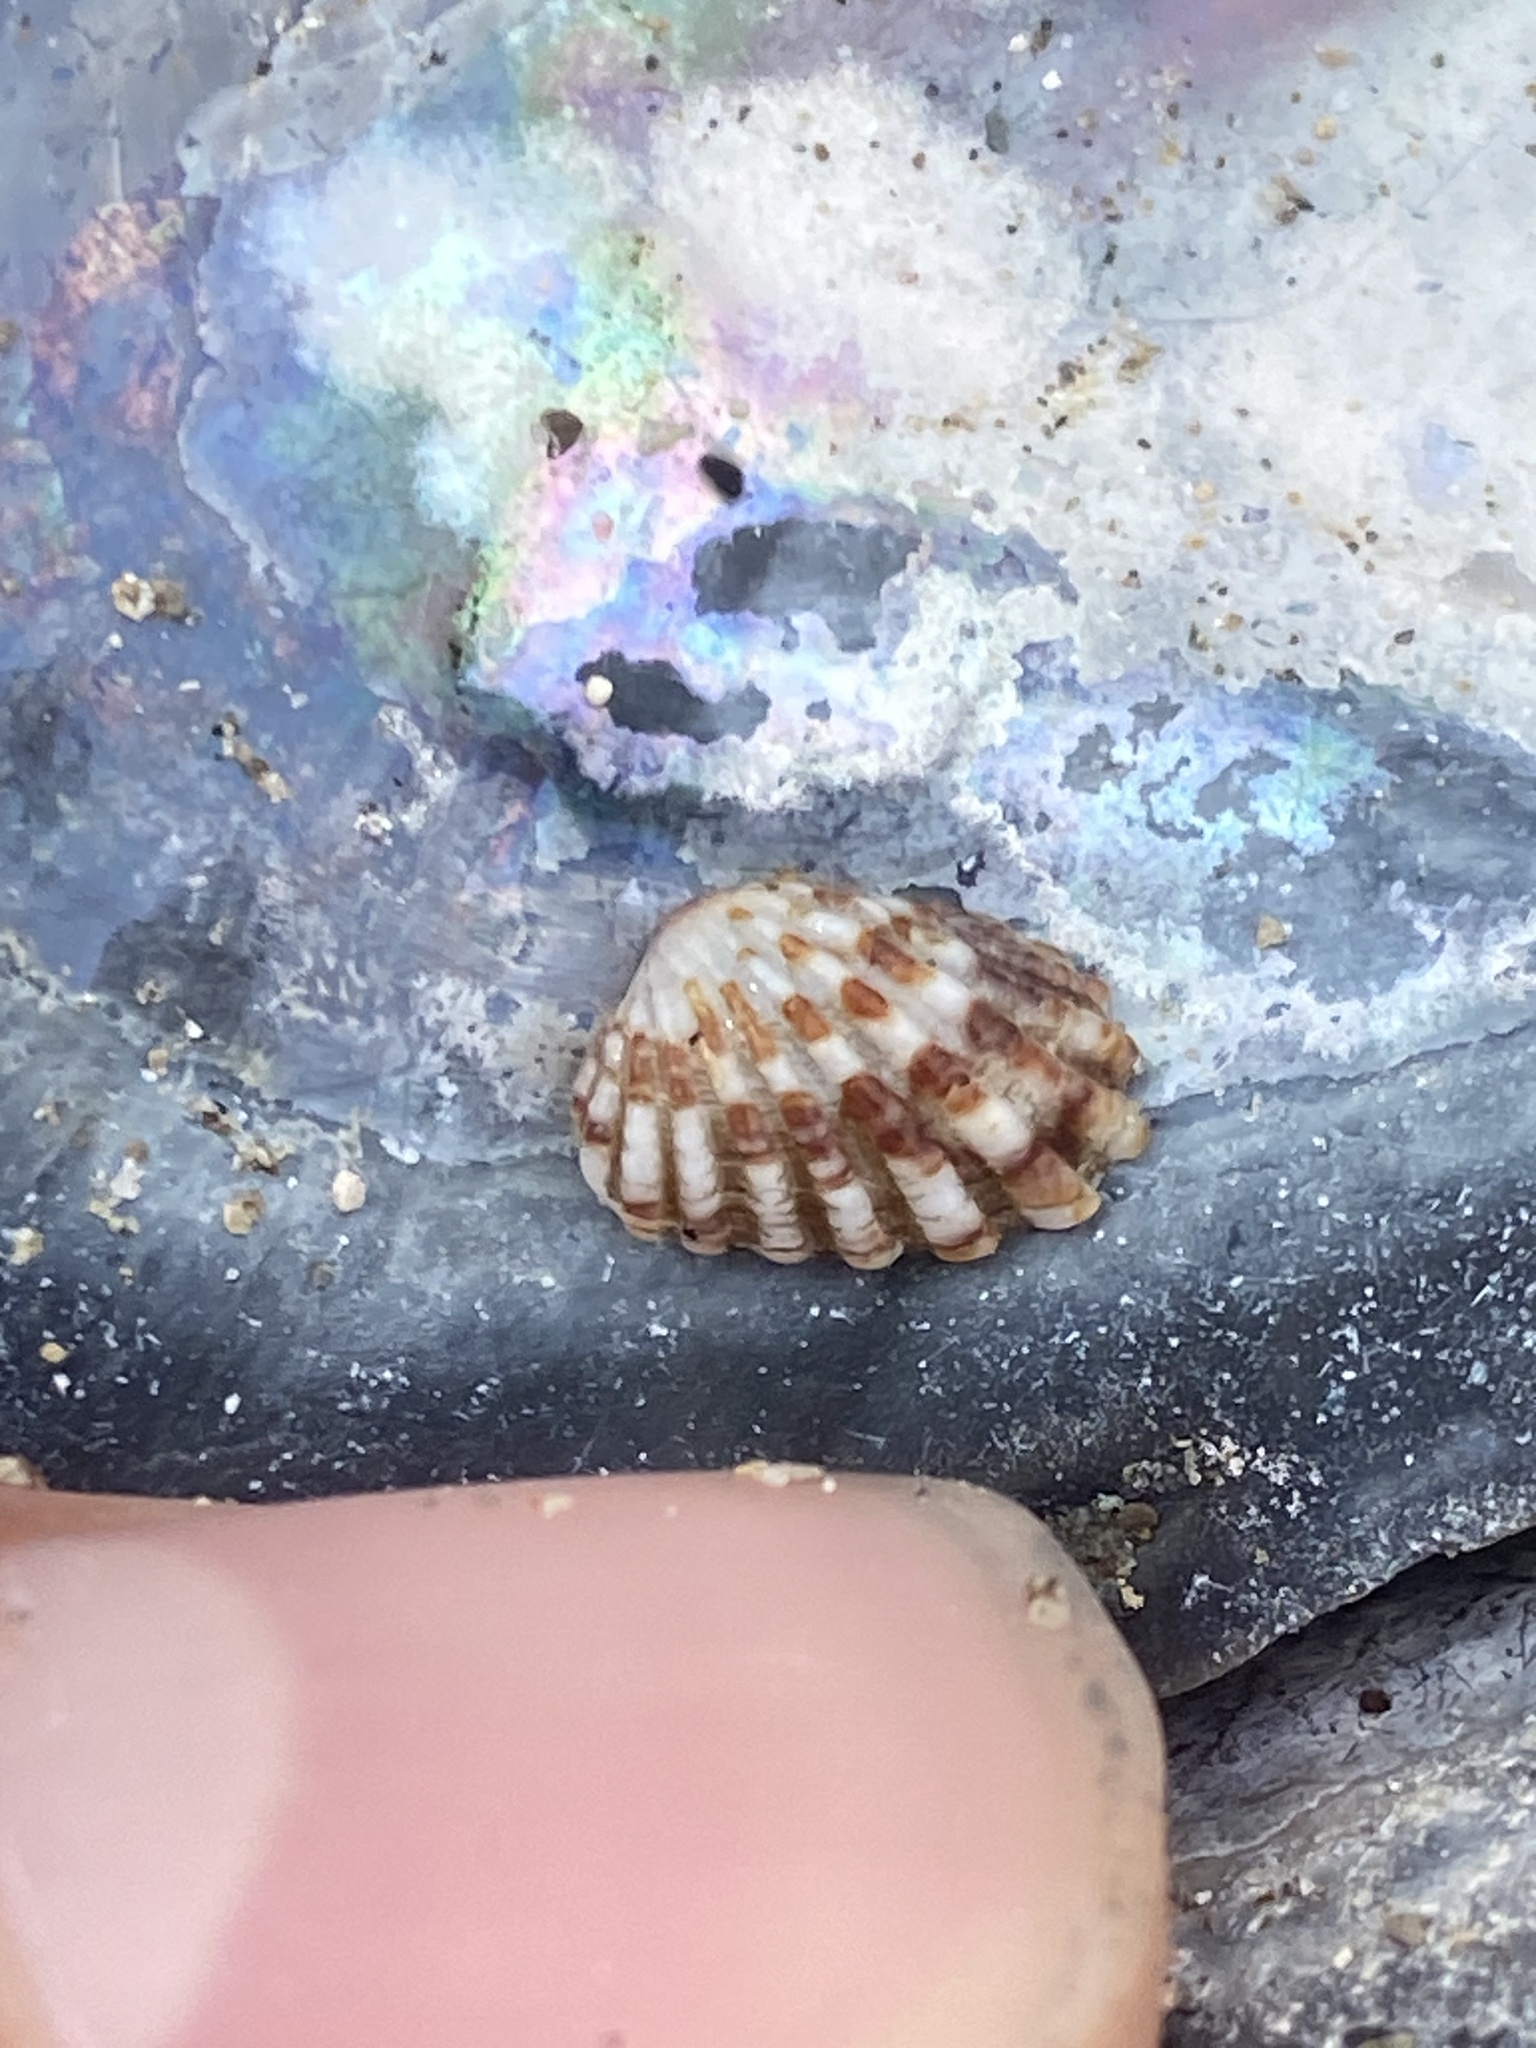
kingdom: Animalia
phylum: Mollusca
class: Bivalvia
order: Carditida
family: Carditidae
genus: Glans
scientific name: Glans carpenteri
